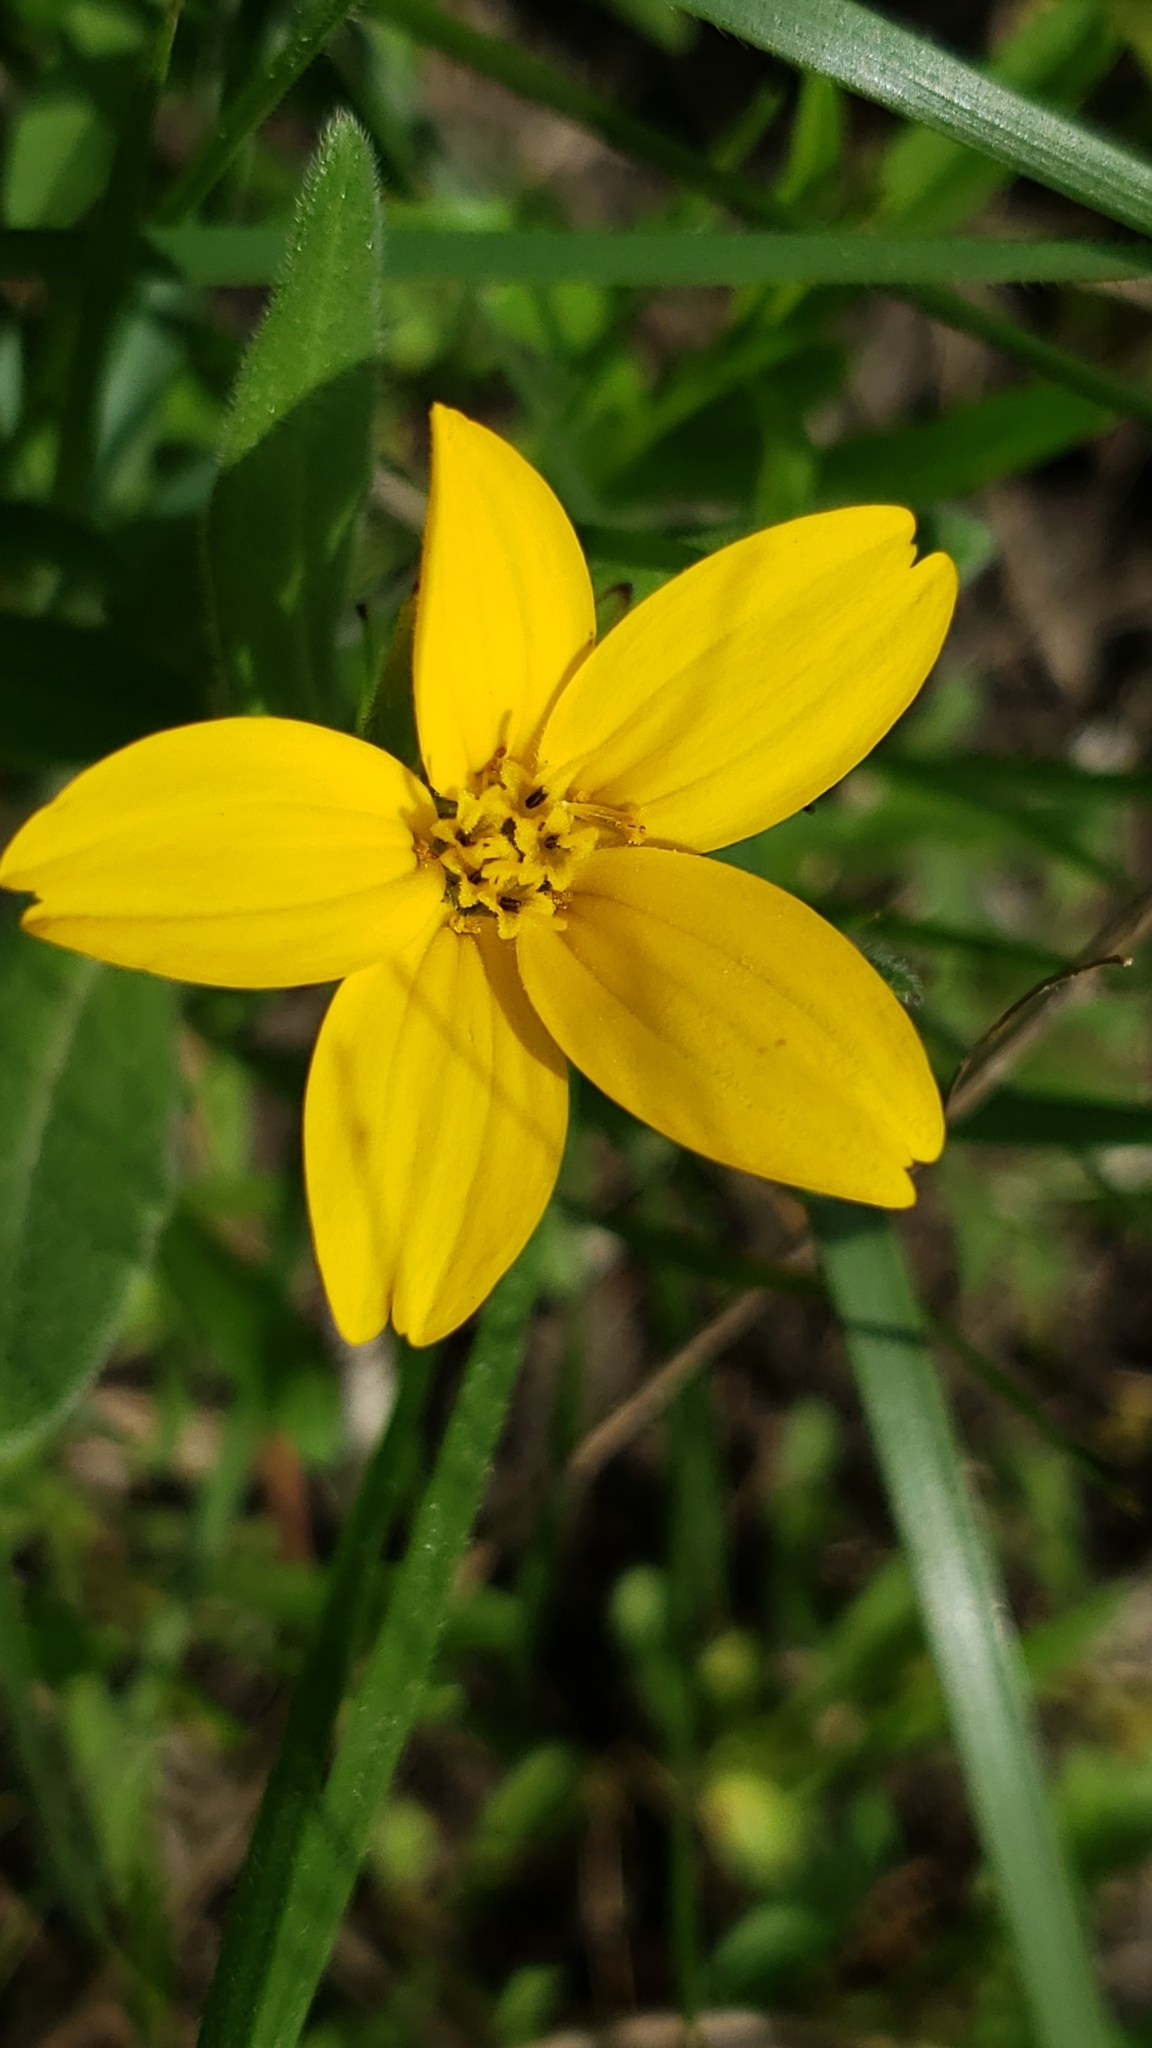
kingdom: Plantae
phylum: Tracheophyta
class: Magnoliopsida
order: Asterales
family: Asteraceae
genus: Lindheimera
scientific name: Lindheimera texana
